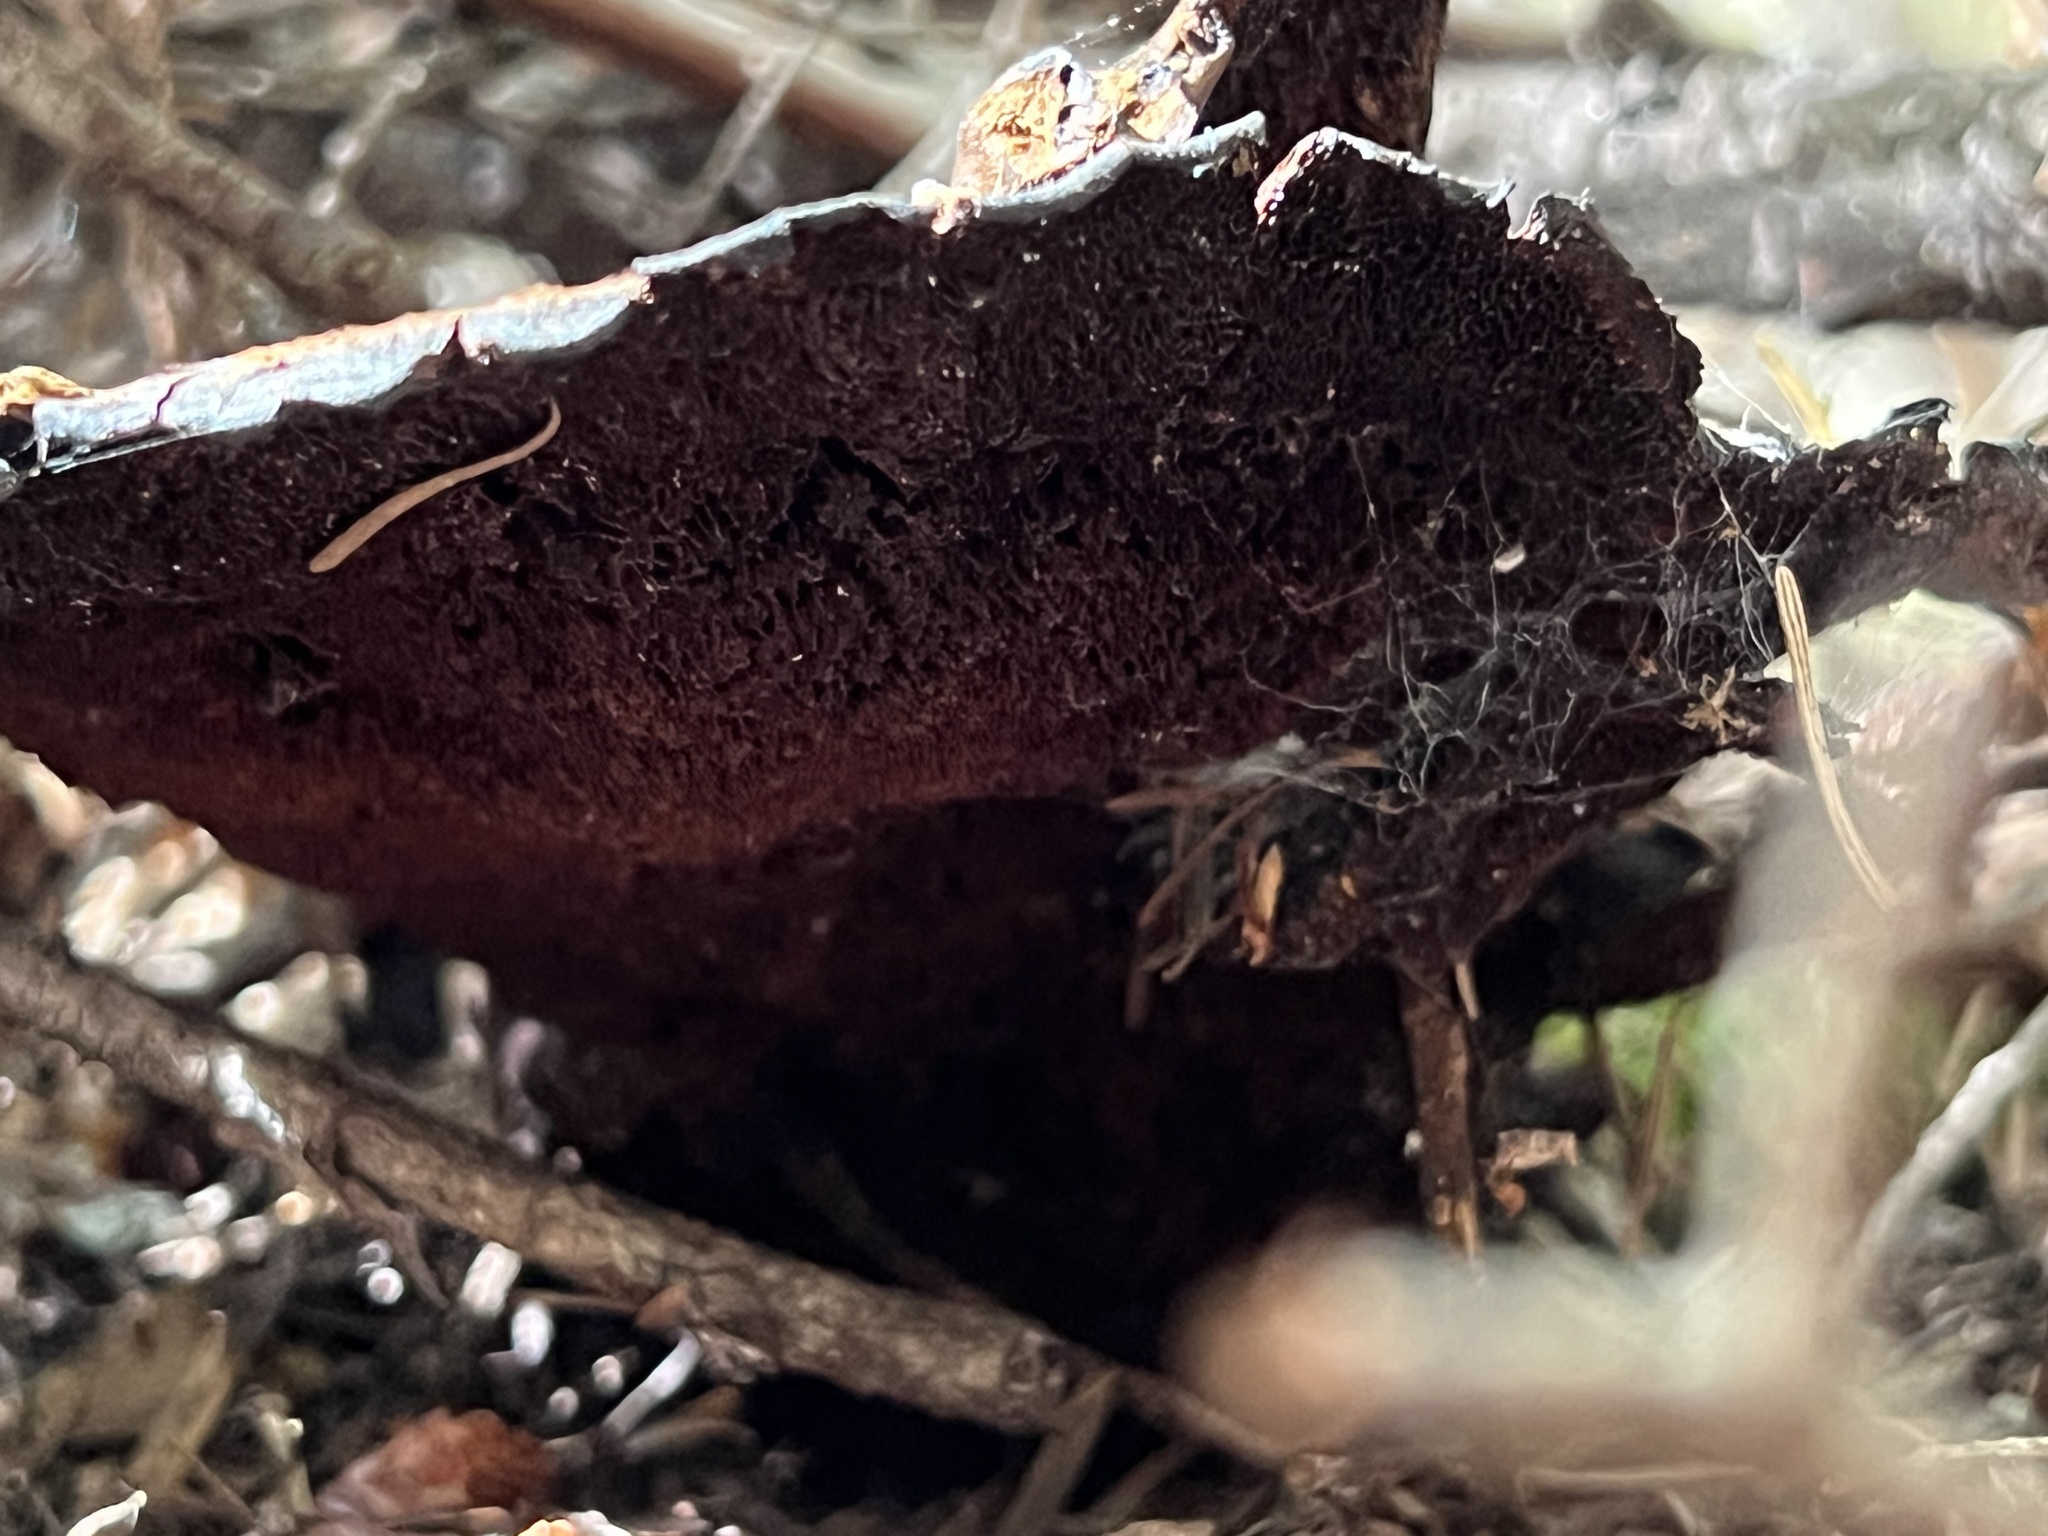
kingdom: Fungi
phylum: Basidiomycota
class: Agaricomycetes
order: Polyporales
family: Laetiporaceae
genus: Phaeolus
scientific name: Phaeolus schweinitzii
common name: Dyer's mazegill
